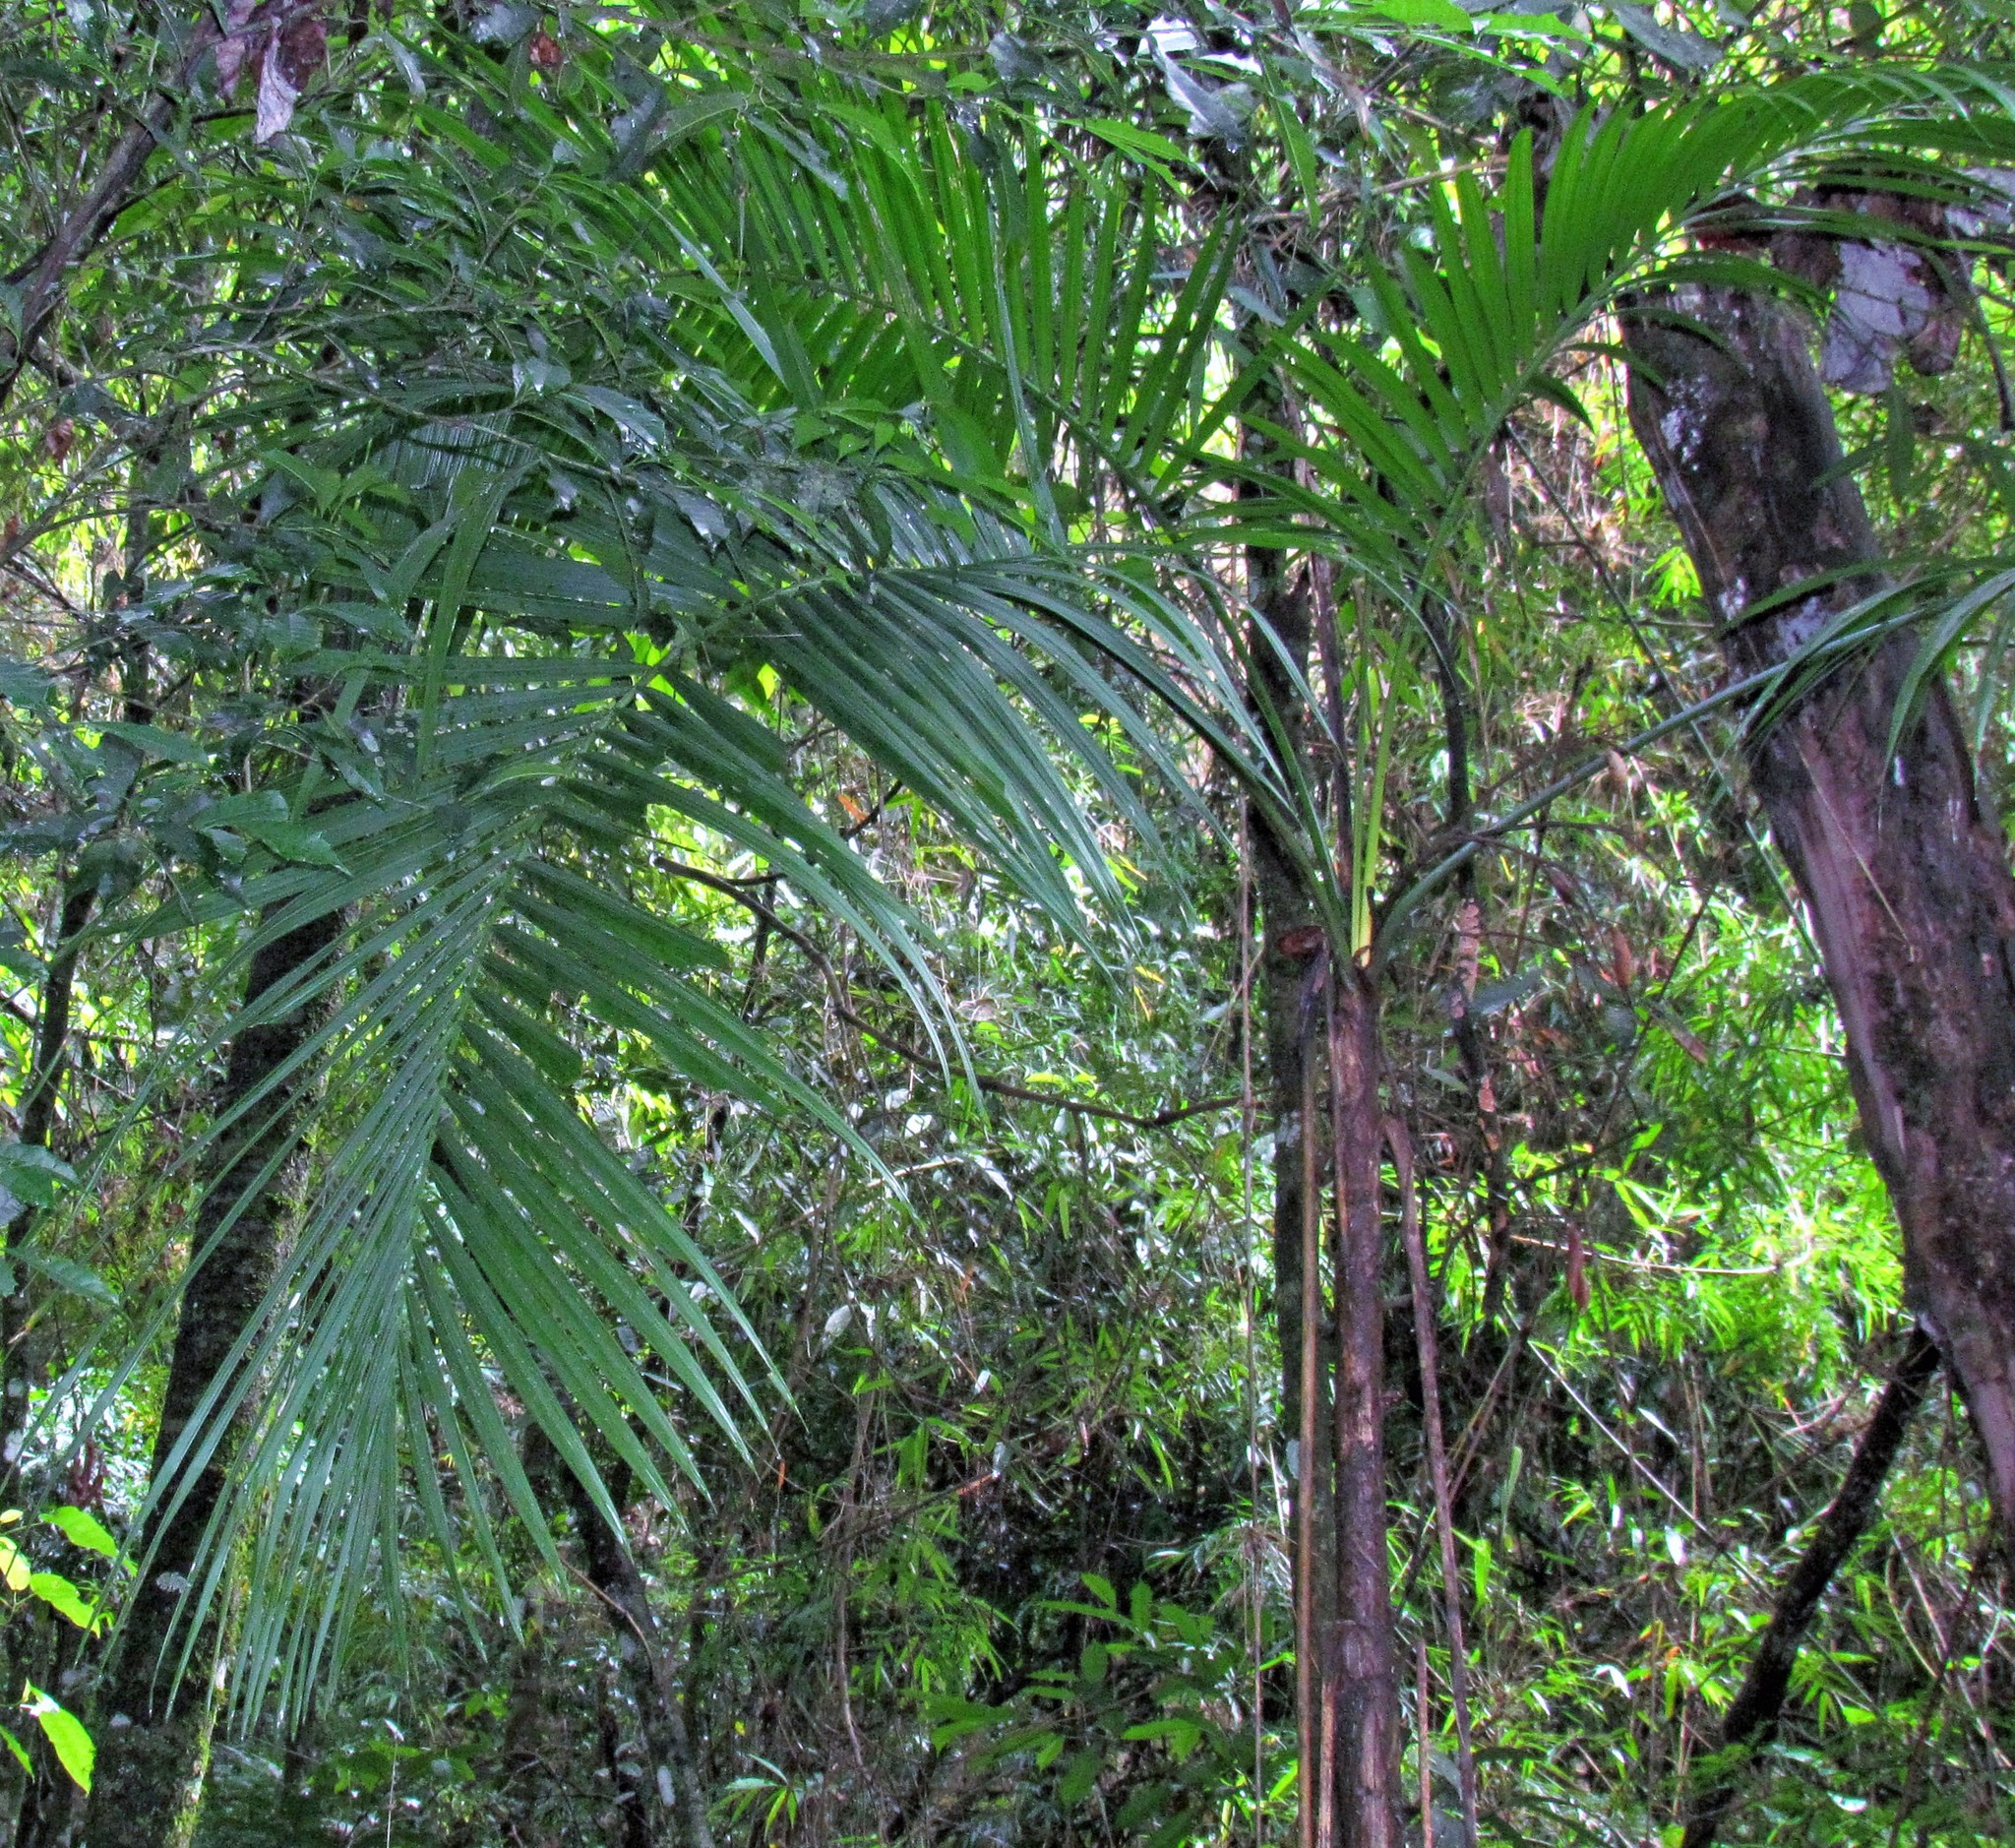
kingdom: Plantae
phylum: Tracheophyta
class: Liliopsida
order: Arecales
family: Arecaceae
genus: Euterpe
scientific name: Euterpe edulis
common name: Assai palm
